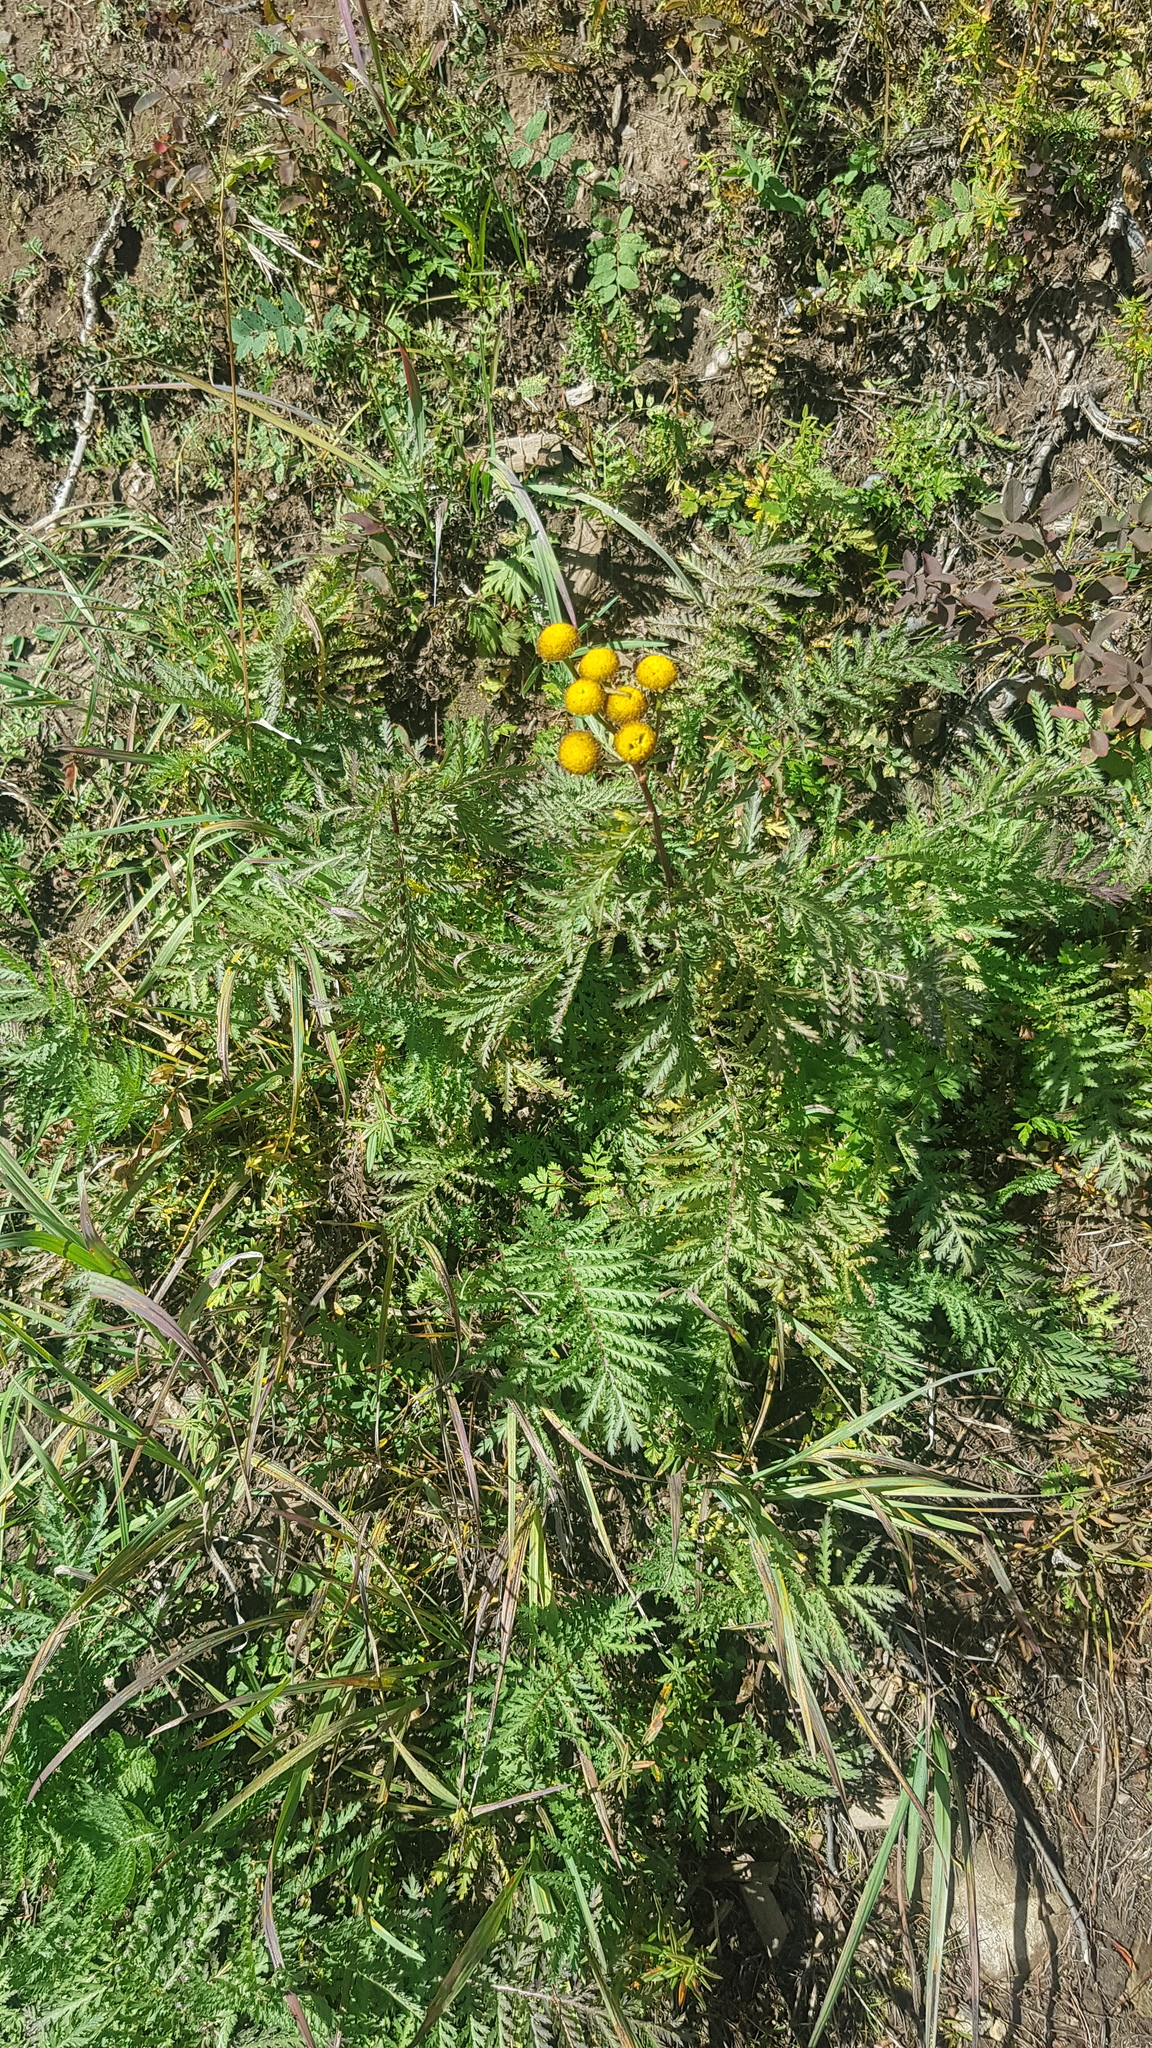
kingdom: Plantae
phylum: Tracheophyta
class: Magnoliopsida
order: Asterales
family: Asteraceae
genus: Tanacetum
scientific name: Tanacetum vulgare
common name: Common tansy
